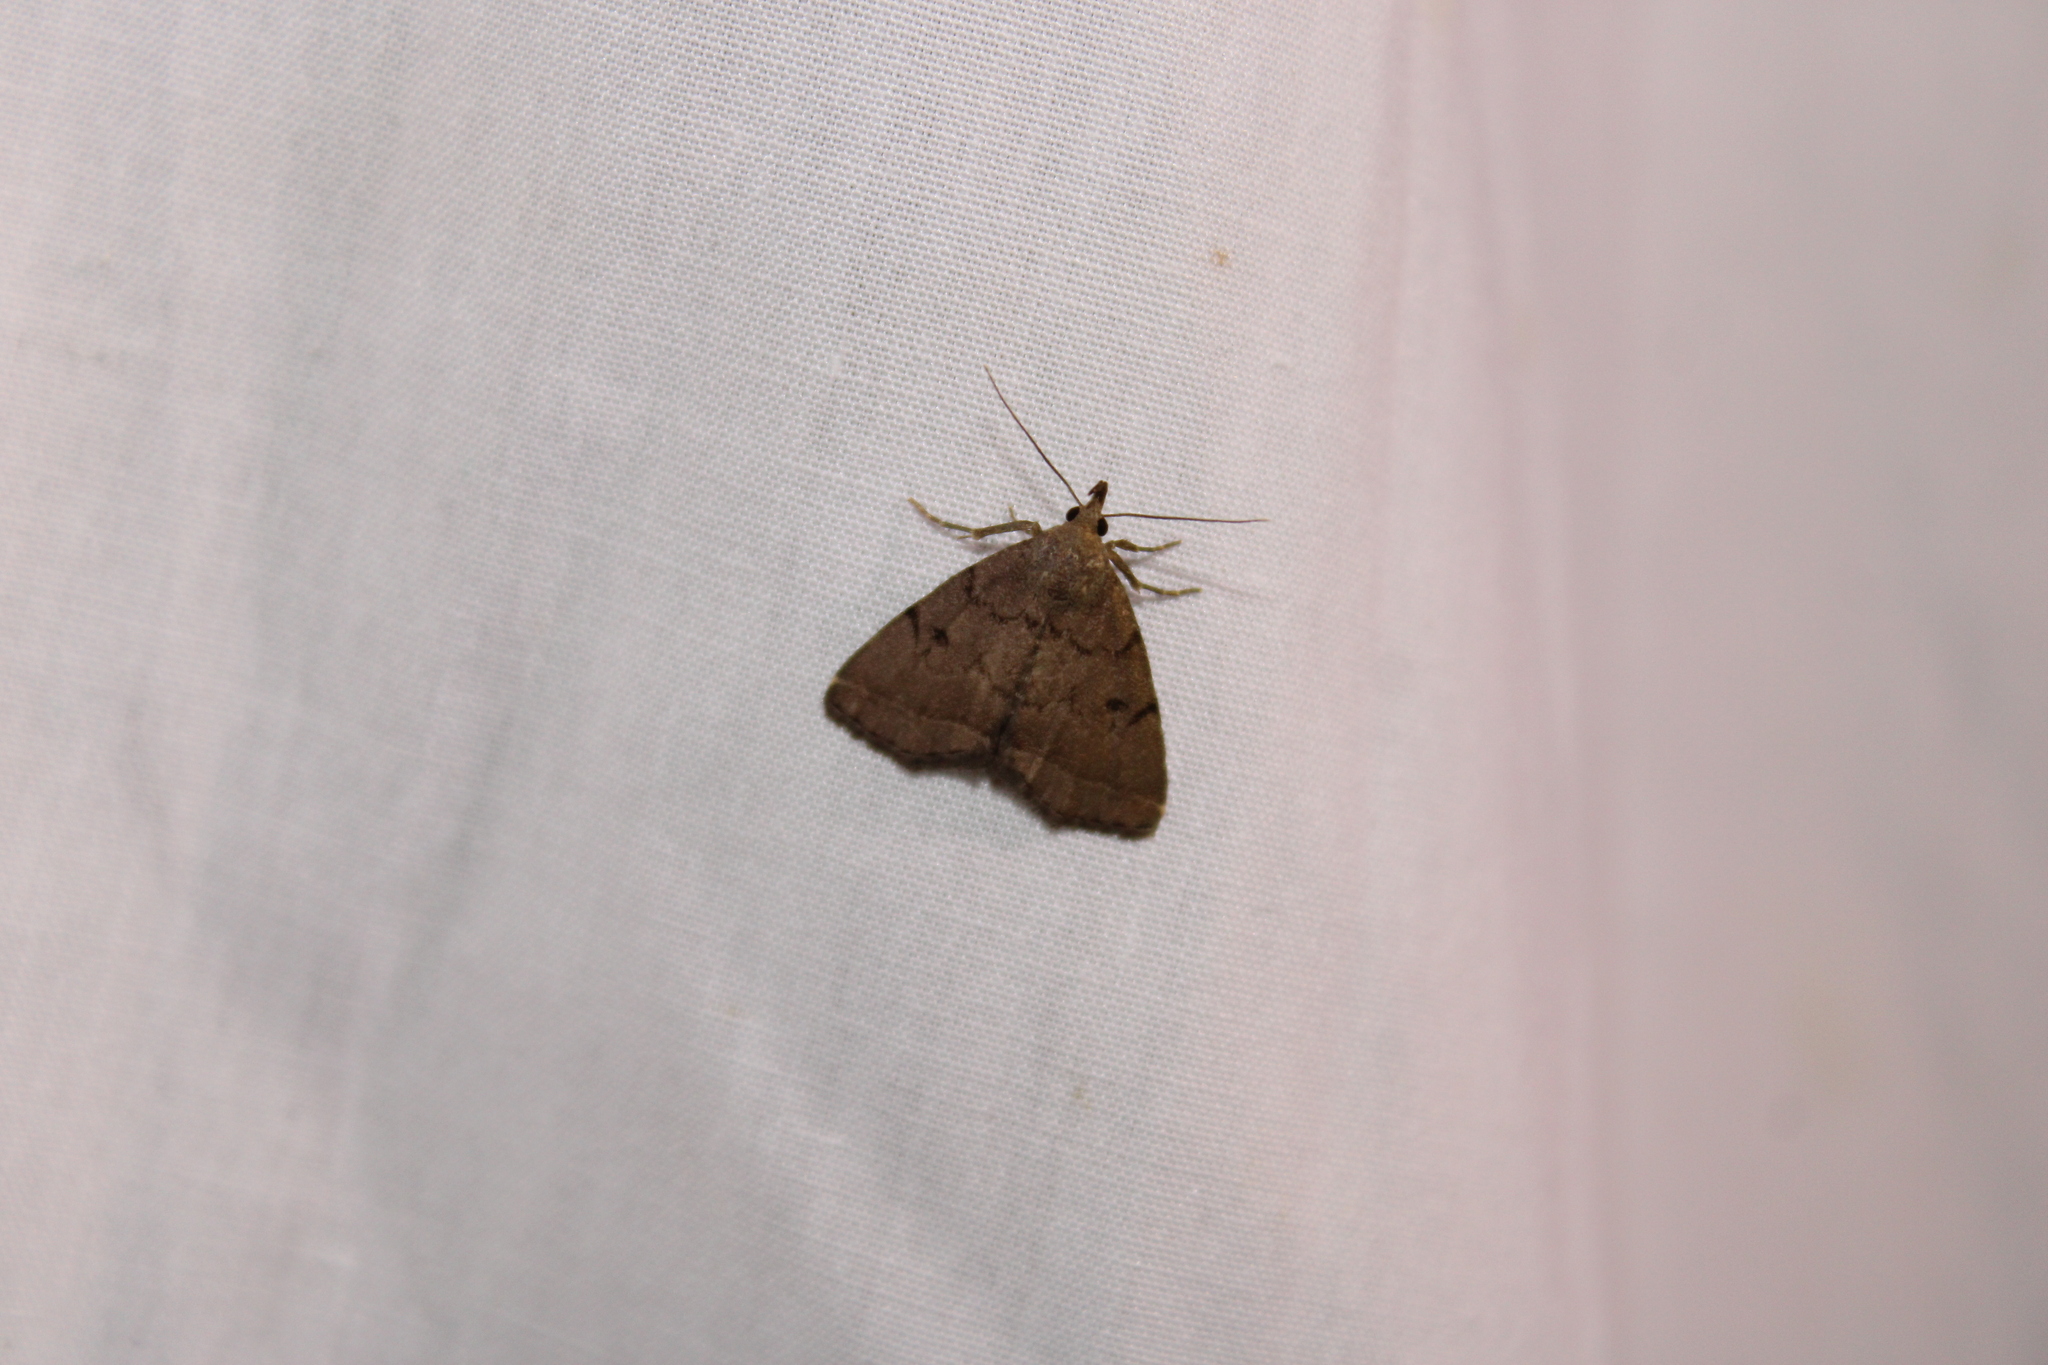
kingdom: Animalia
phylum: Arthropoda
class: Insecta
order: Lepidoptera
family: Erebidae
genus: Zanclognatha
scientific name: Zanclognatha dentata
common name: Toothed fan-foot
